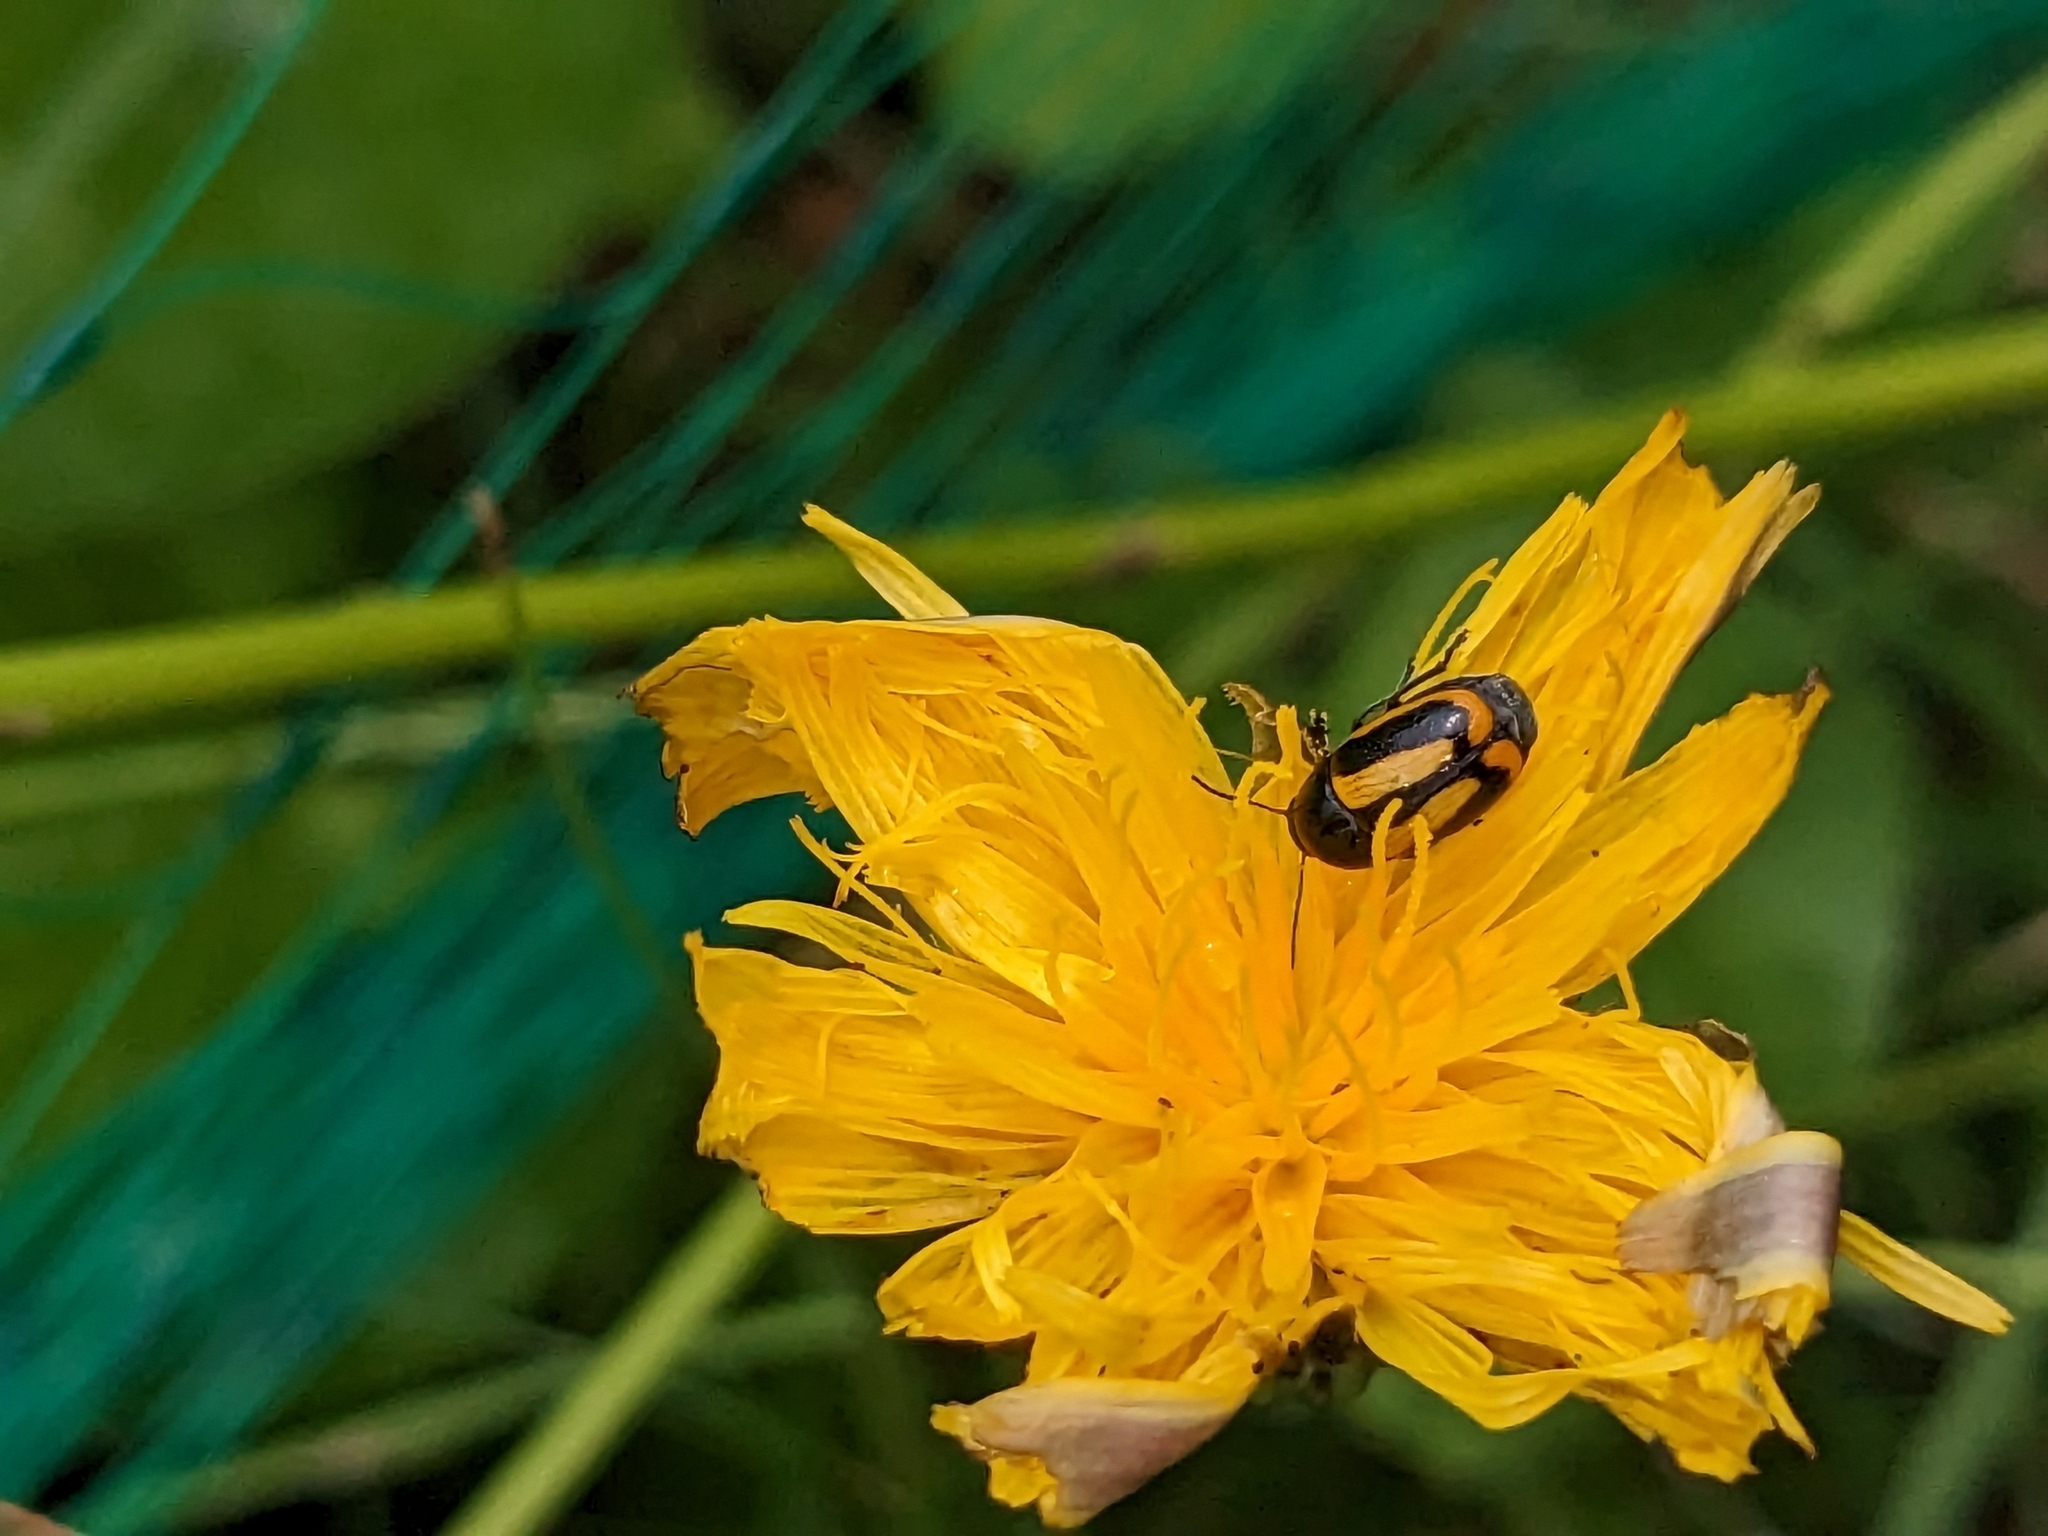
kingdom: Animalia
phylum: Arthropoda
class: Insecta
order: Coleoptera
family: Chrysomelidae
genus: Acalymma
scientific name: Acalymma vittatum
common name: Striped cucumber beetle
